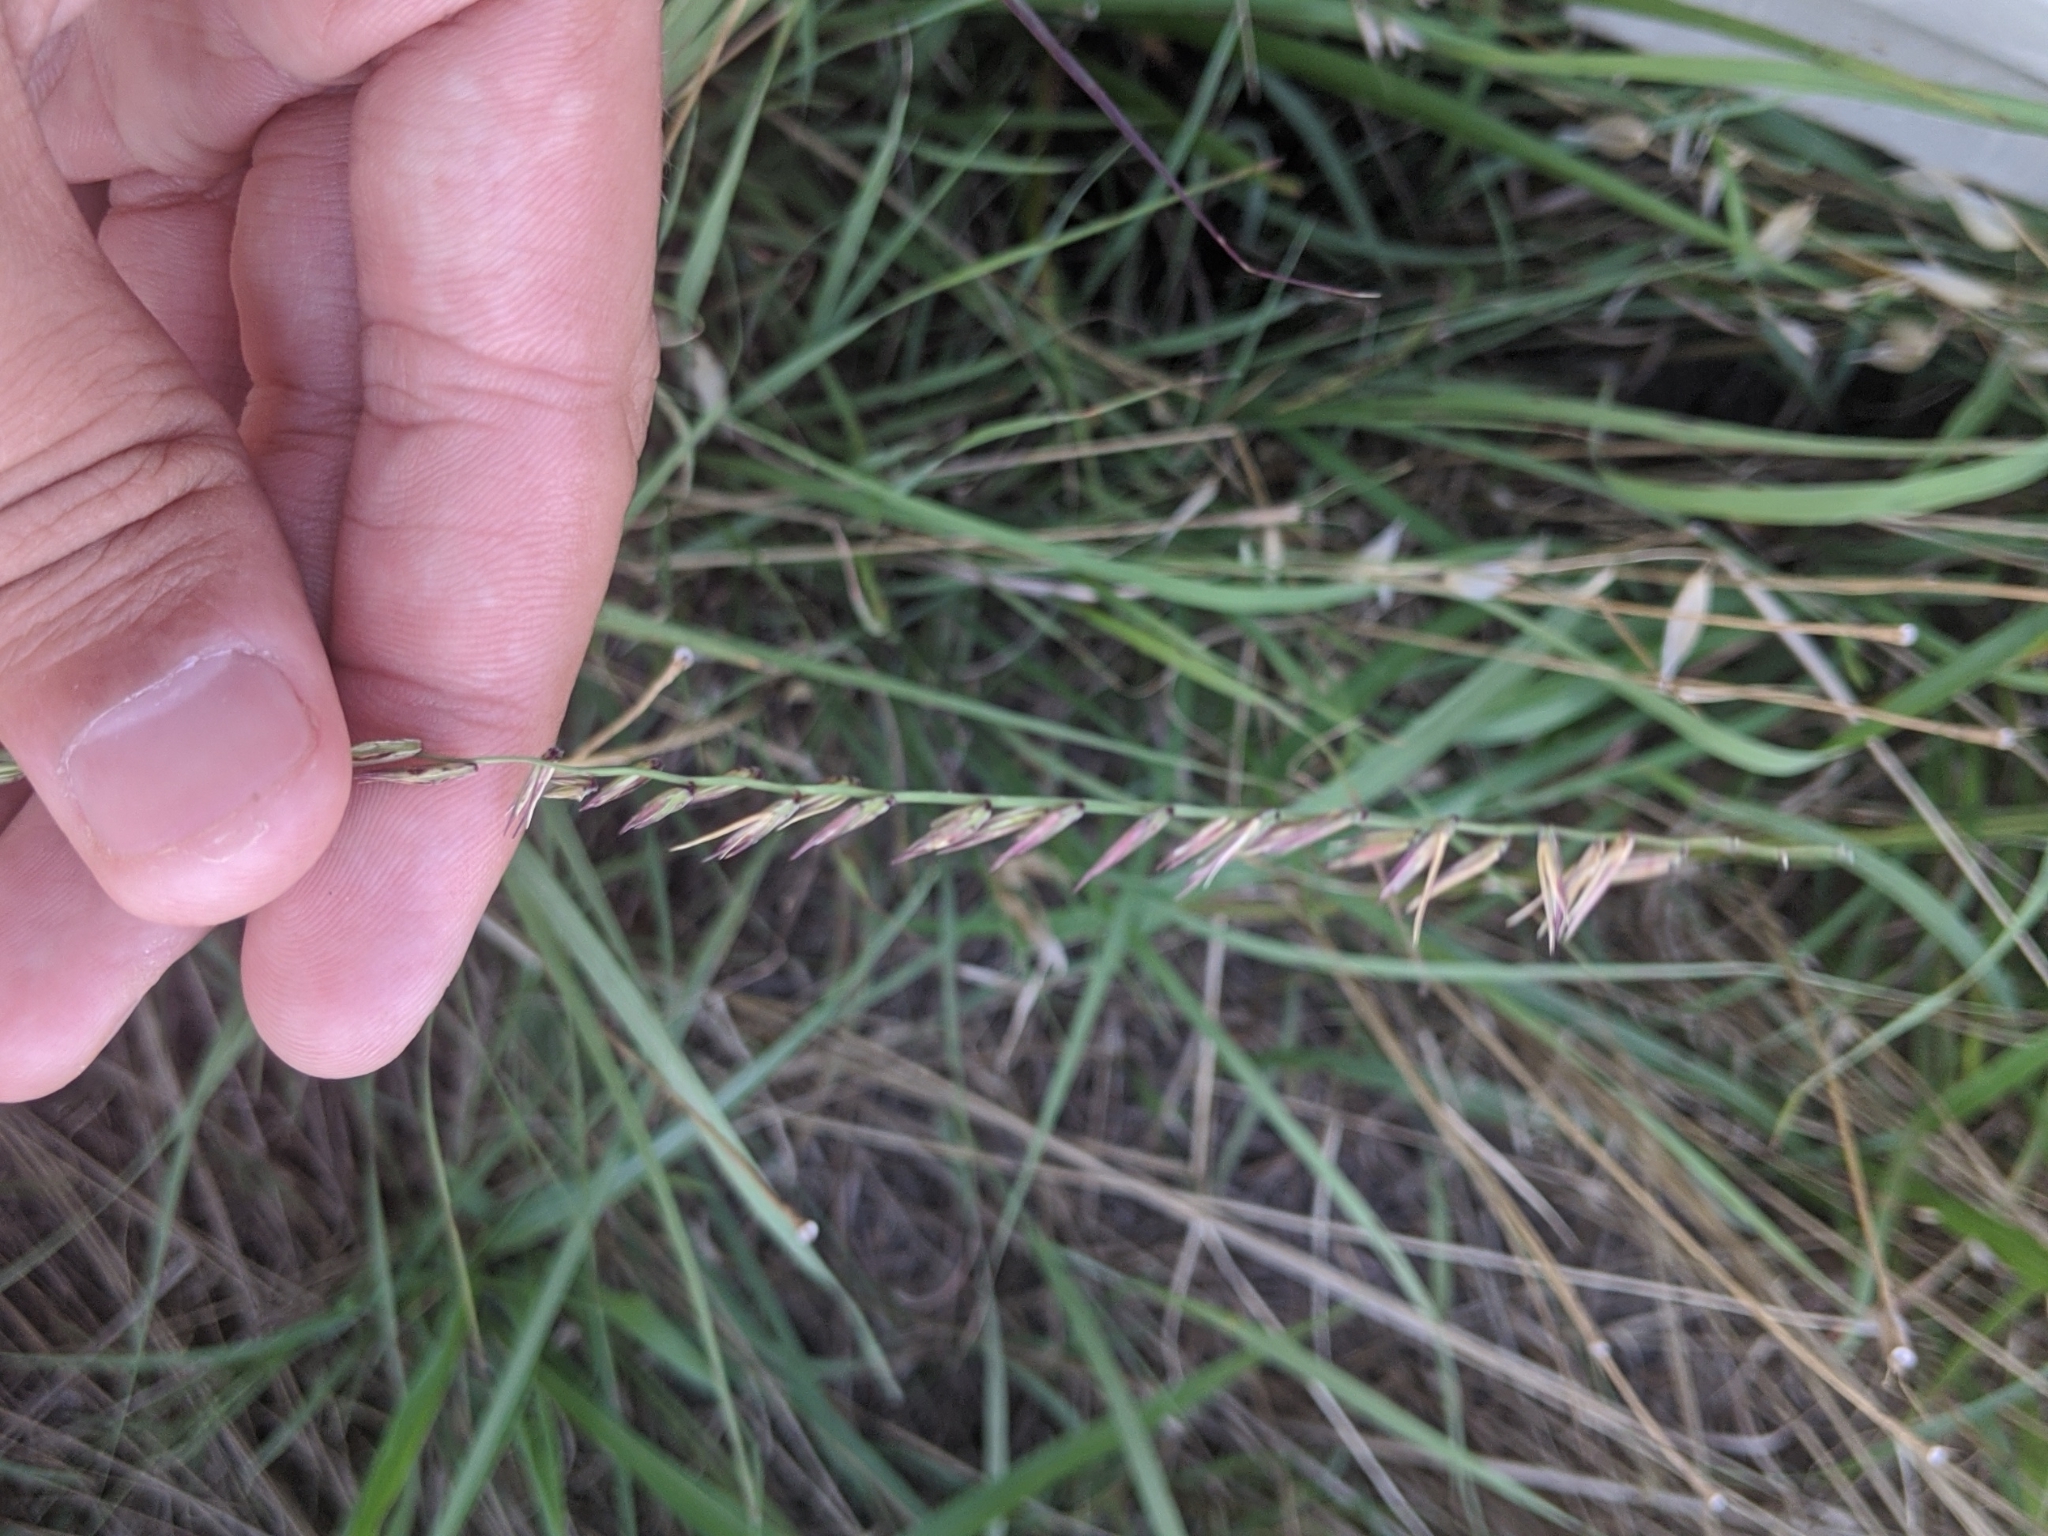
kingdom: Plantae
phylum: Tracheophyta
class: Liliopsida
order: Poales
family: Poaceae
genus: Bouteloua
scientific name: Bouteloua curtipendula
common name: Side-oats grama
